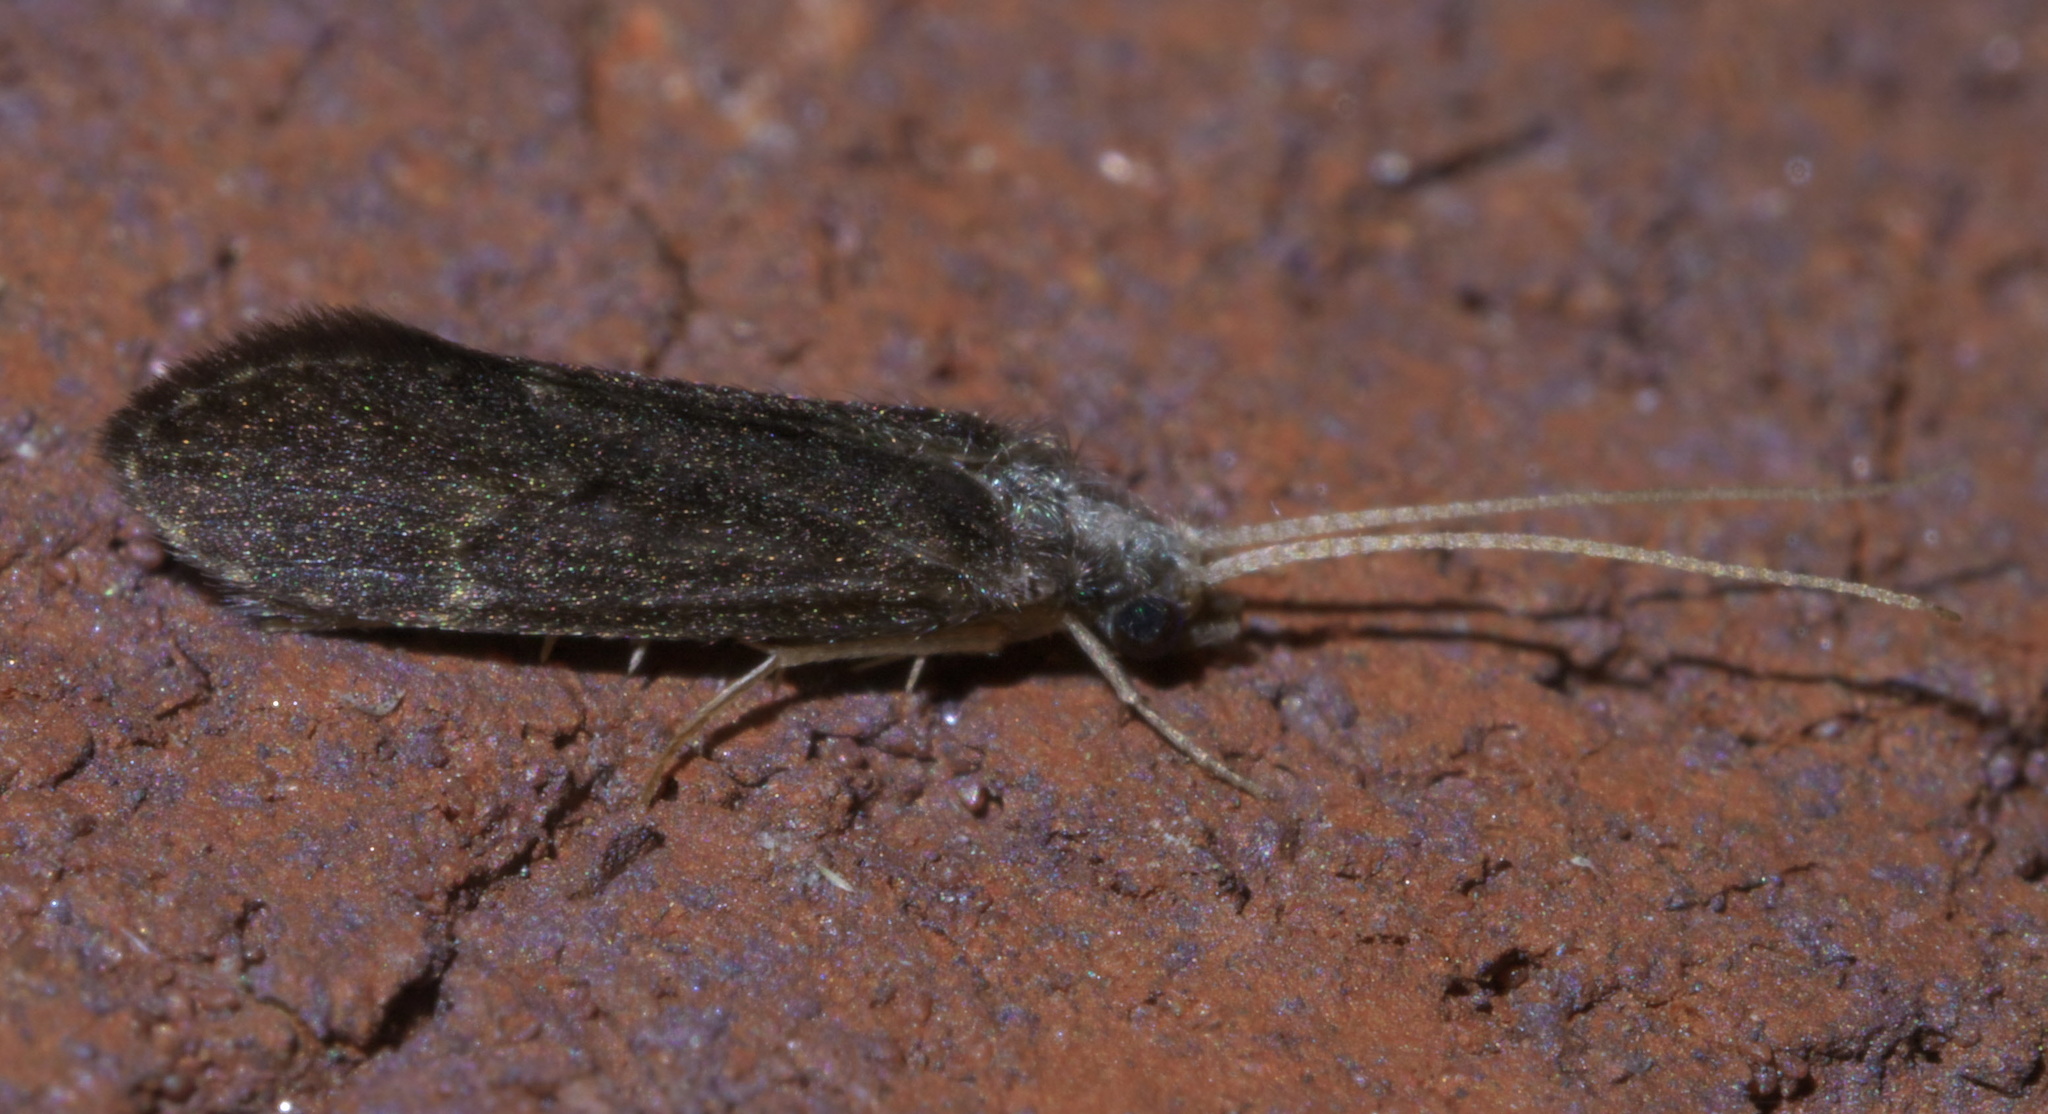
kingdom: Animalia
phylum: Arthropoda
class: Insecta
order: Trichoptera
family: Polycentropodidae
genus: Cyrnellus
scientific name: Cyrnellus fraternus
